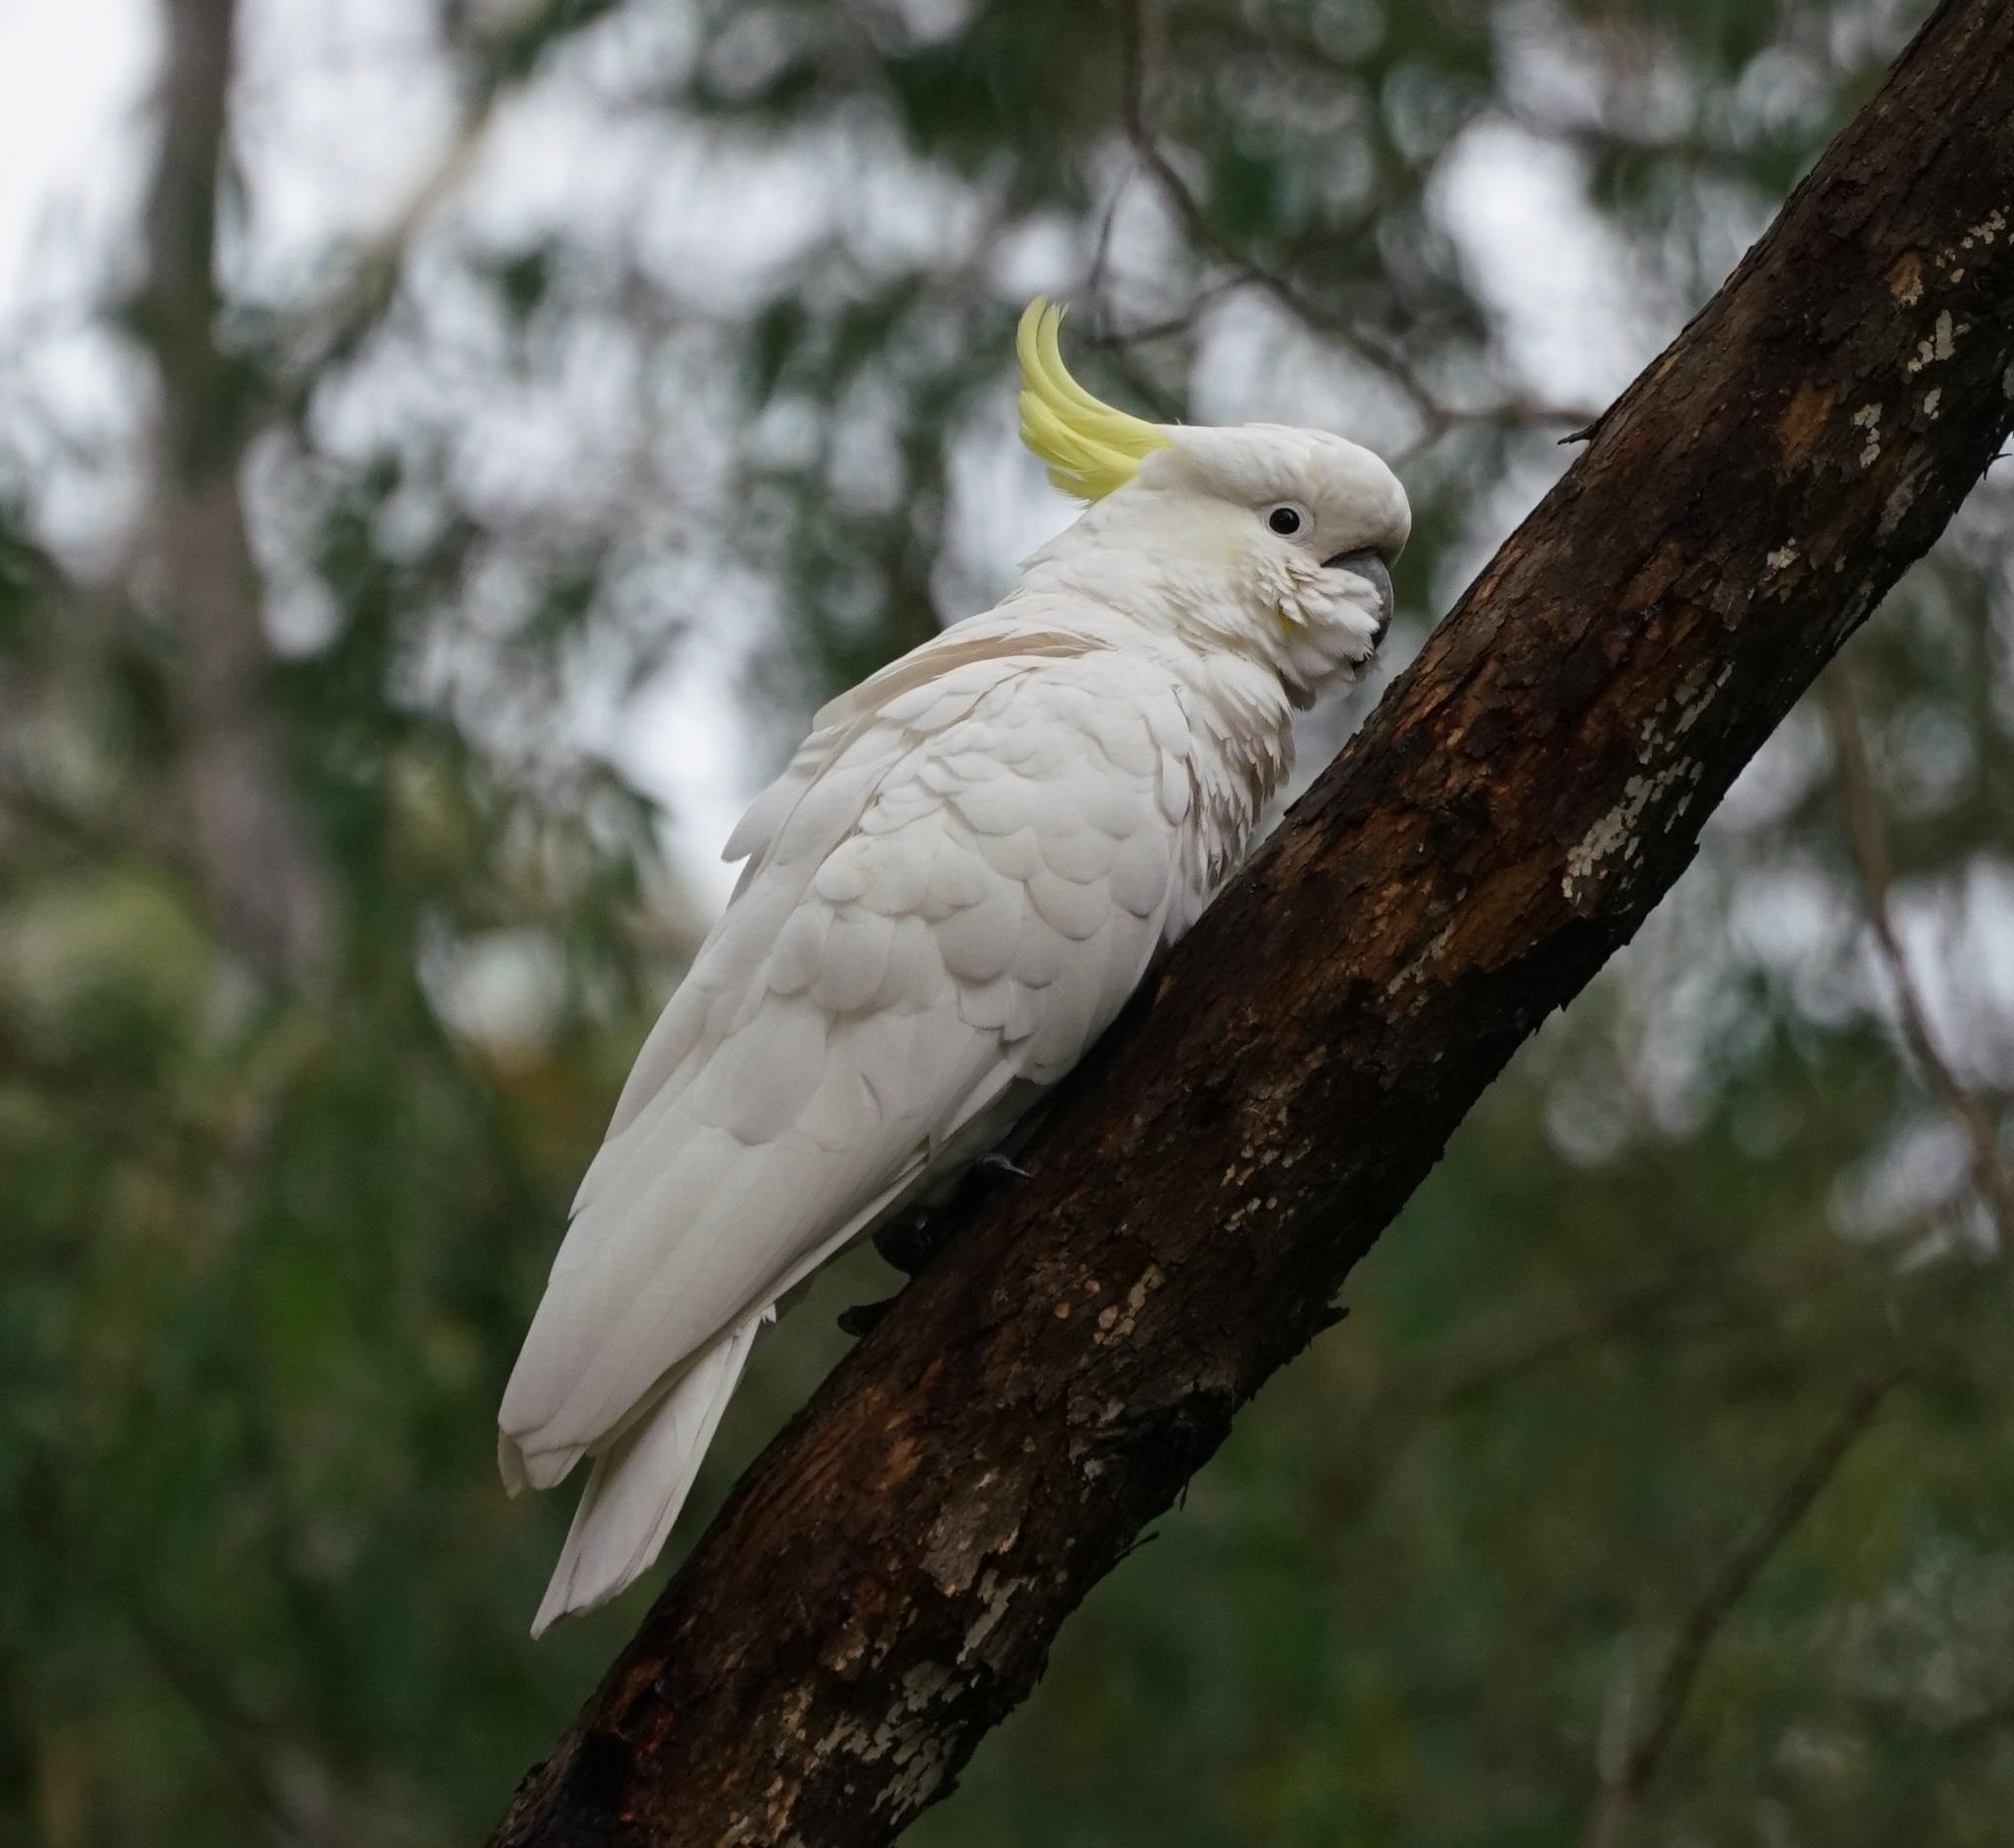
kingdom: Animalia
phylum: Chordata
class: Aves
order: Psittaciformes
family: Psittacidae
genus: Cacatua
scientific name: Cacatua galerita
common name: Sulphur-crested cockatoo
